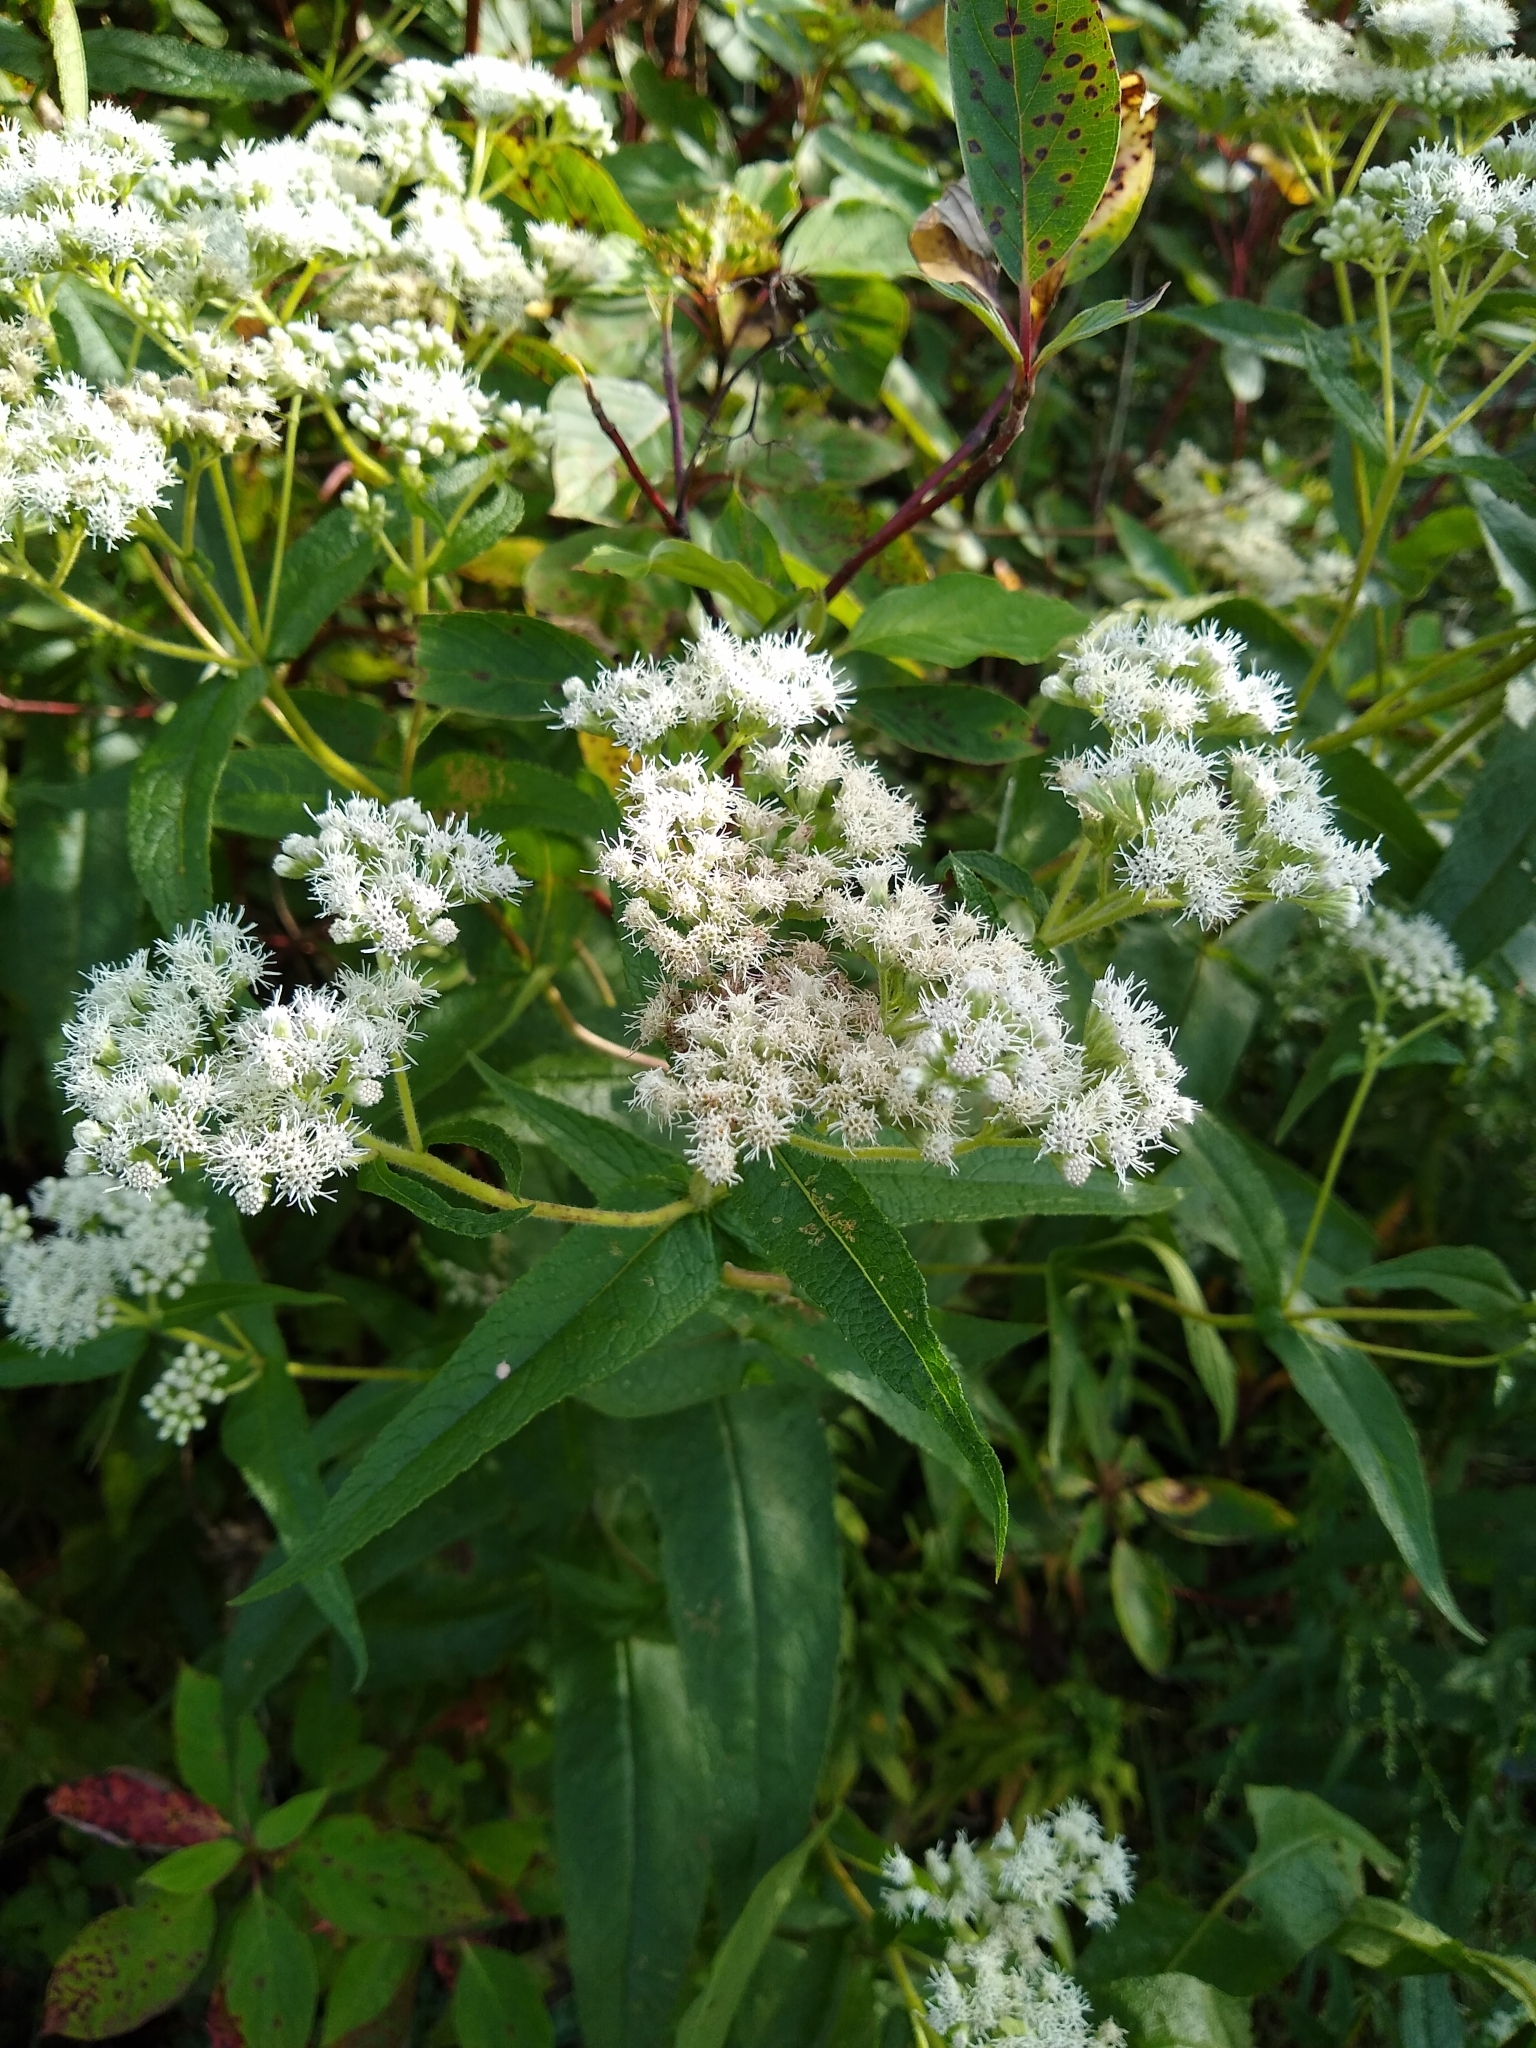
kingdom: Plantae
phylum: Tracheophyta
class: Magnoliopsida
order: Asterales
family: Asteraceae
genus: Eupatorium
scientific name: Eupatorium perfoliatum
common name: Boneset
